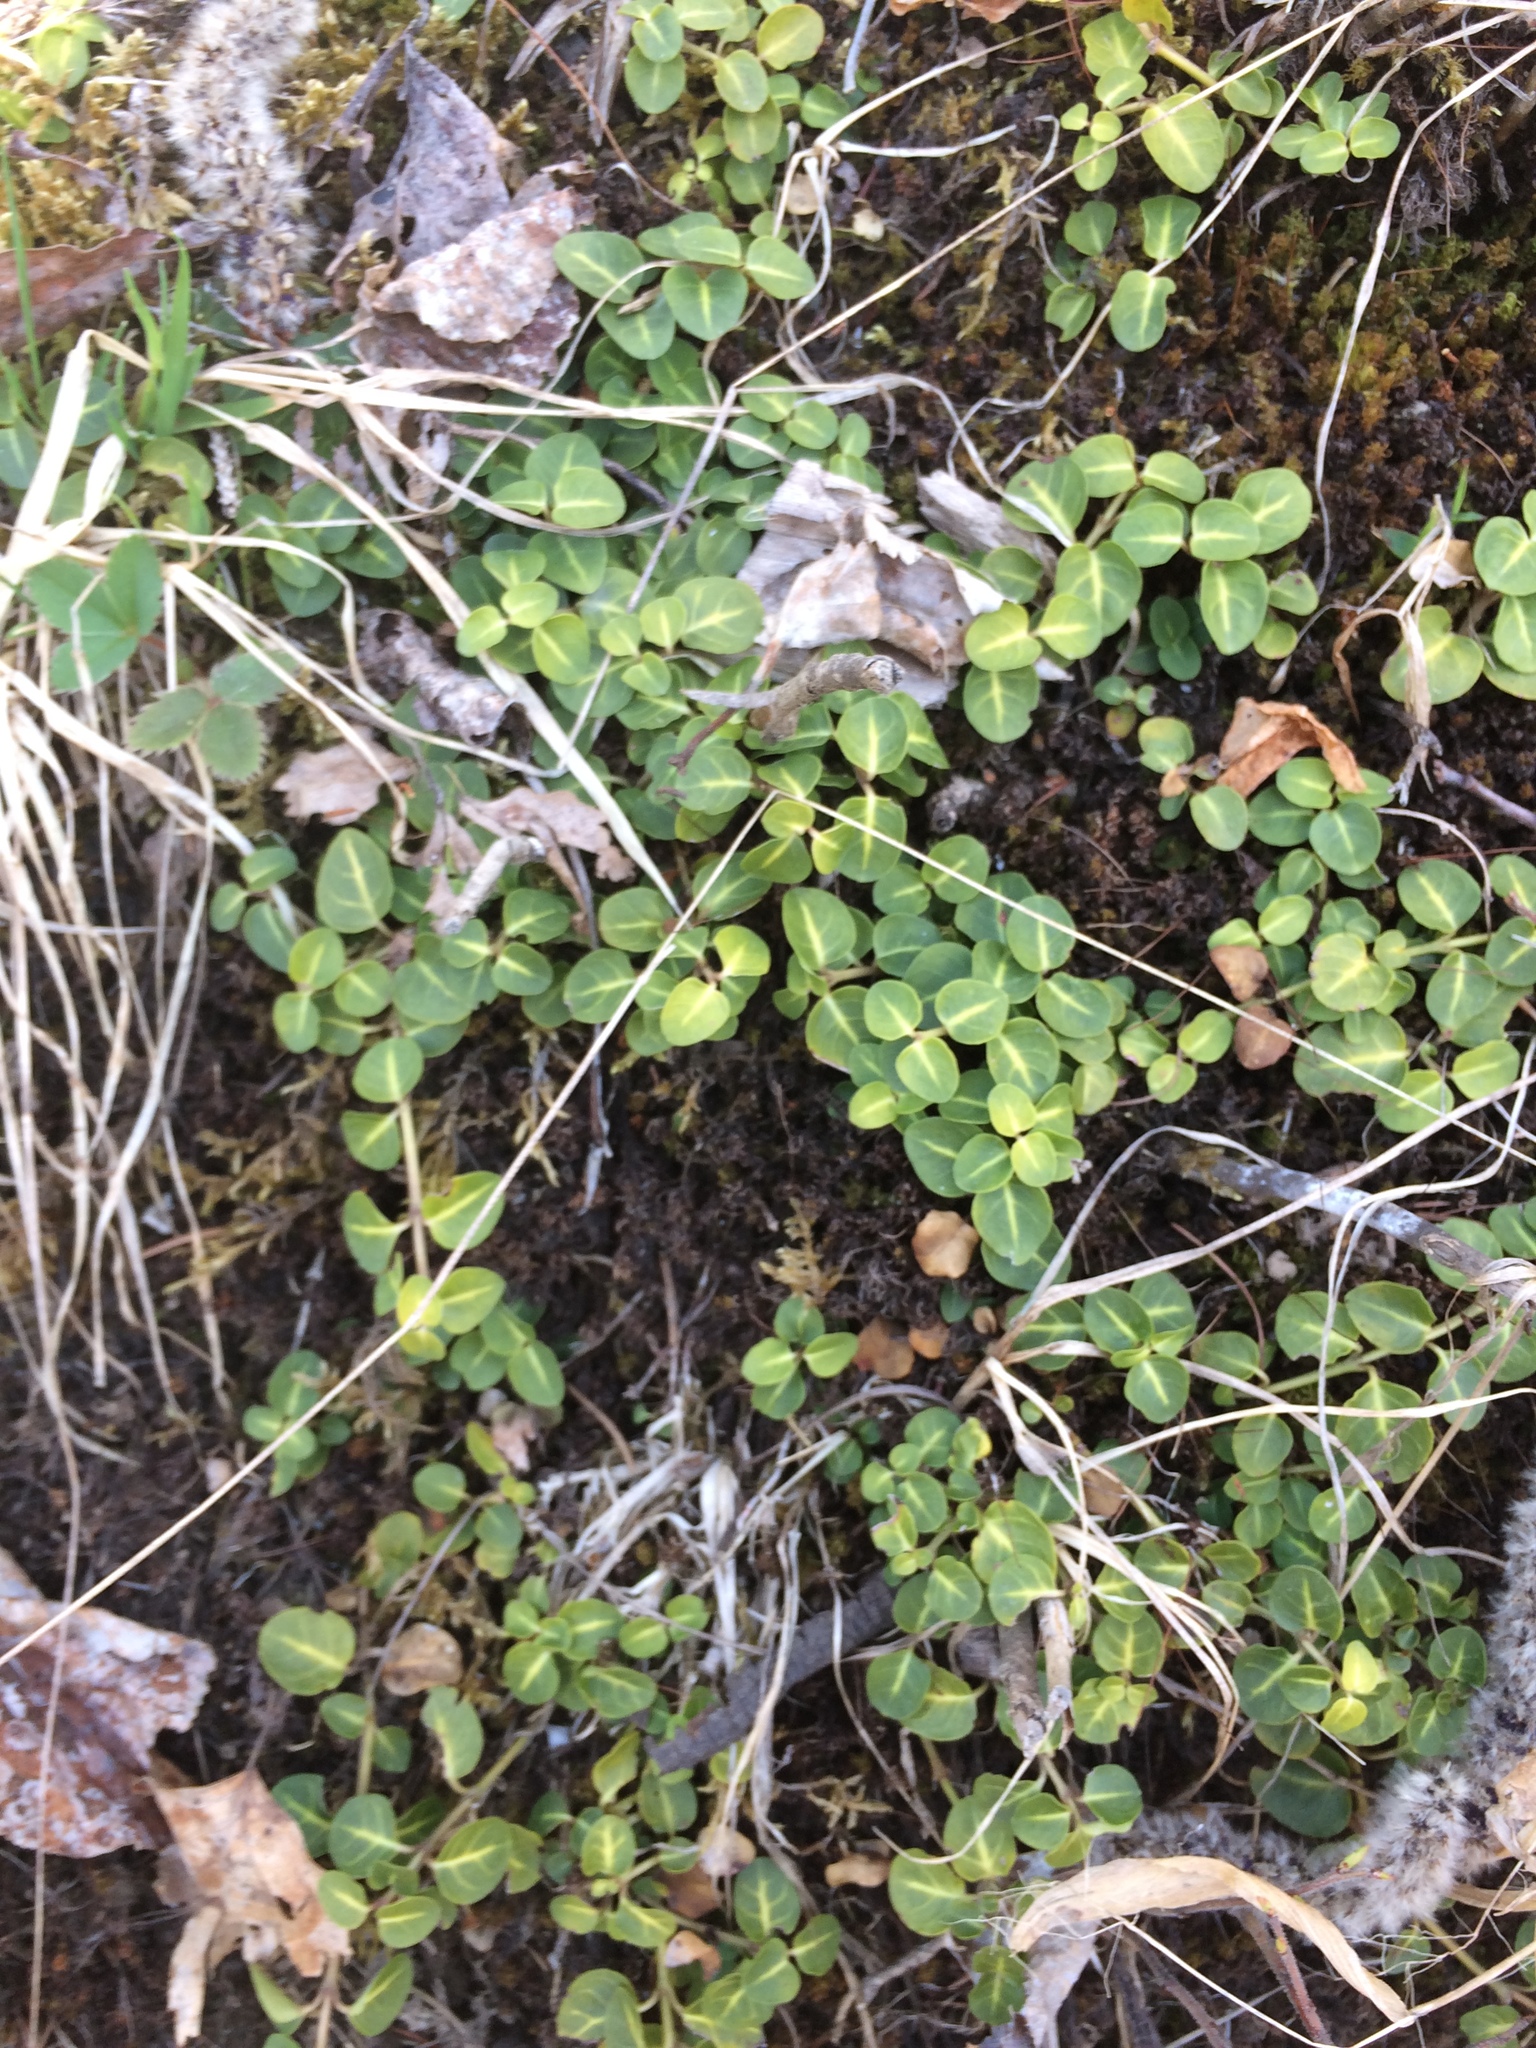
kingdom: Plantae
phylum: Tracheophyta
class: Magnoliopsida
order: Gentianales
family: Rubiaceae
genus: Mitchella
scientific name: Mitchella repens
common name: Partridge-berry
